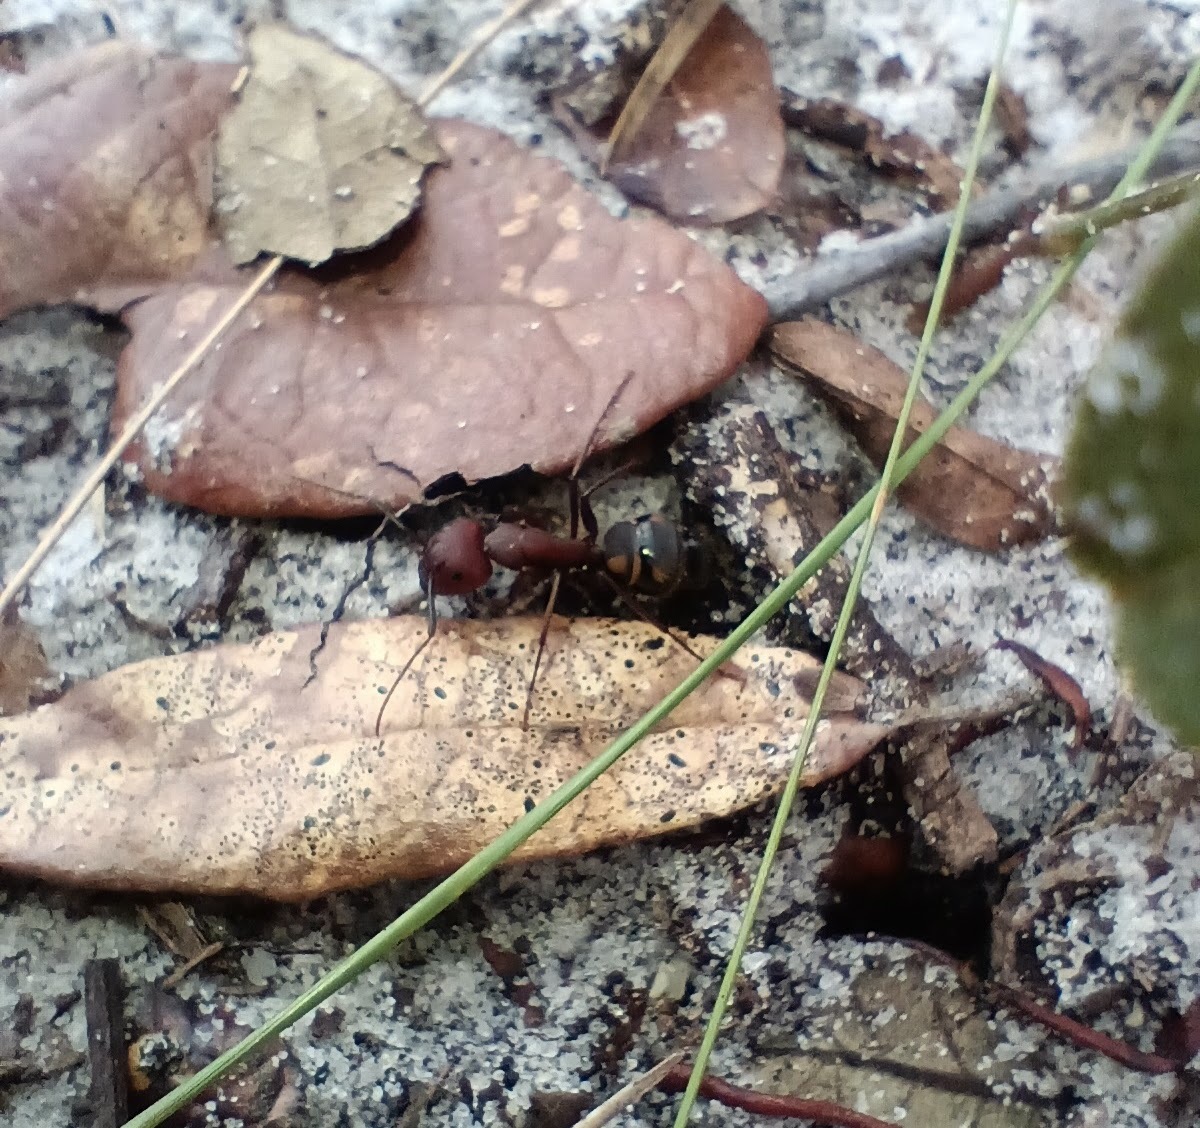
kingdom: Animalia
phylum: Arthropoda
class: Insecta
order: Hymenoptera
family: Formicidae
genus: Camponotus
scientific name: Camponotus socius
